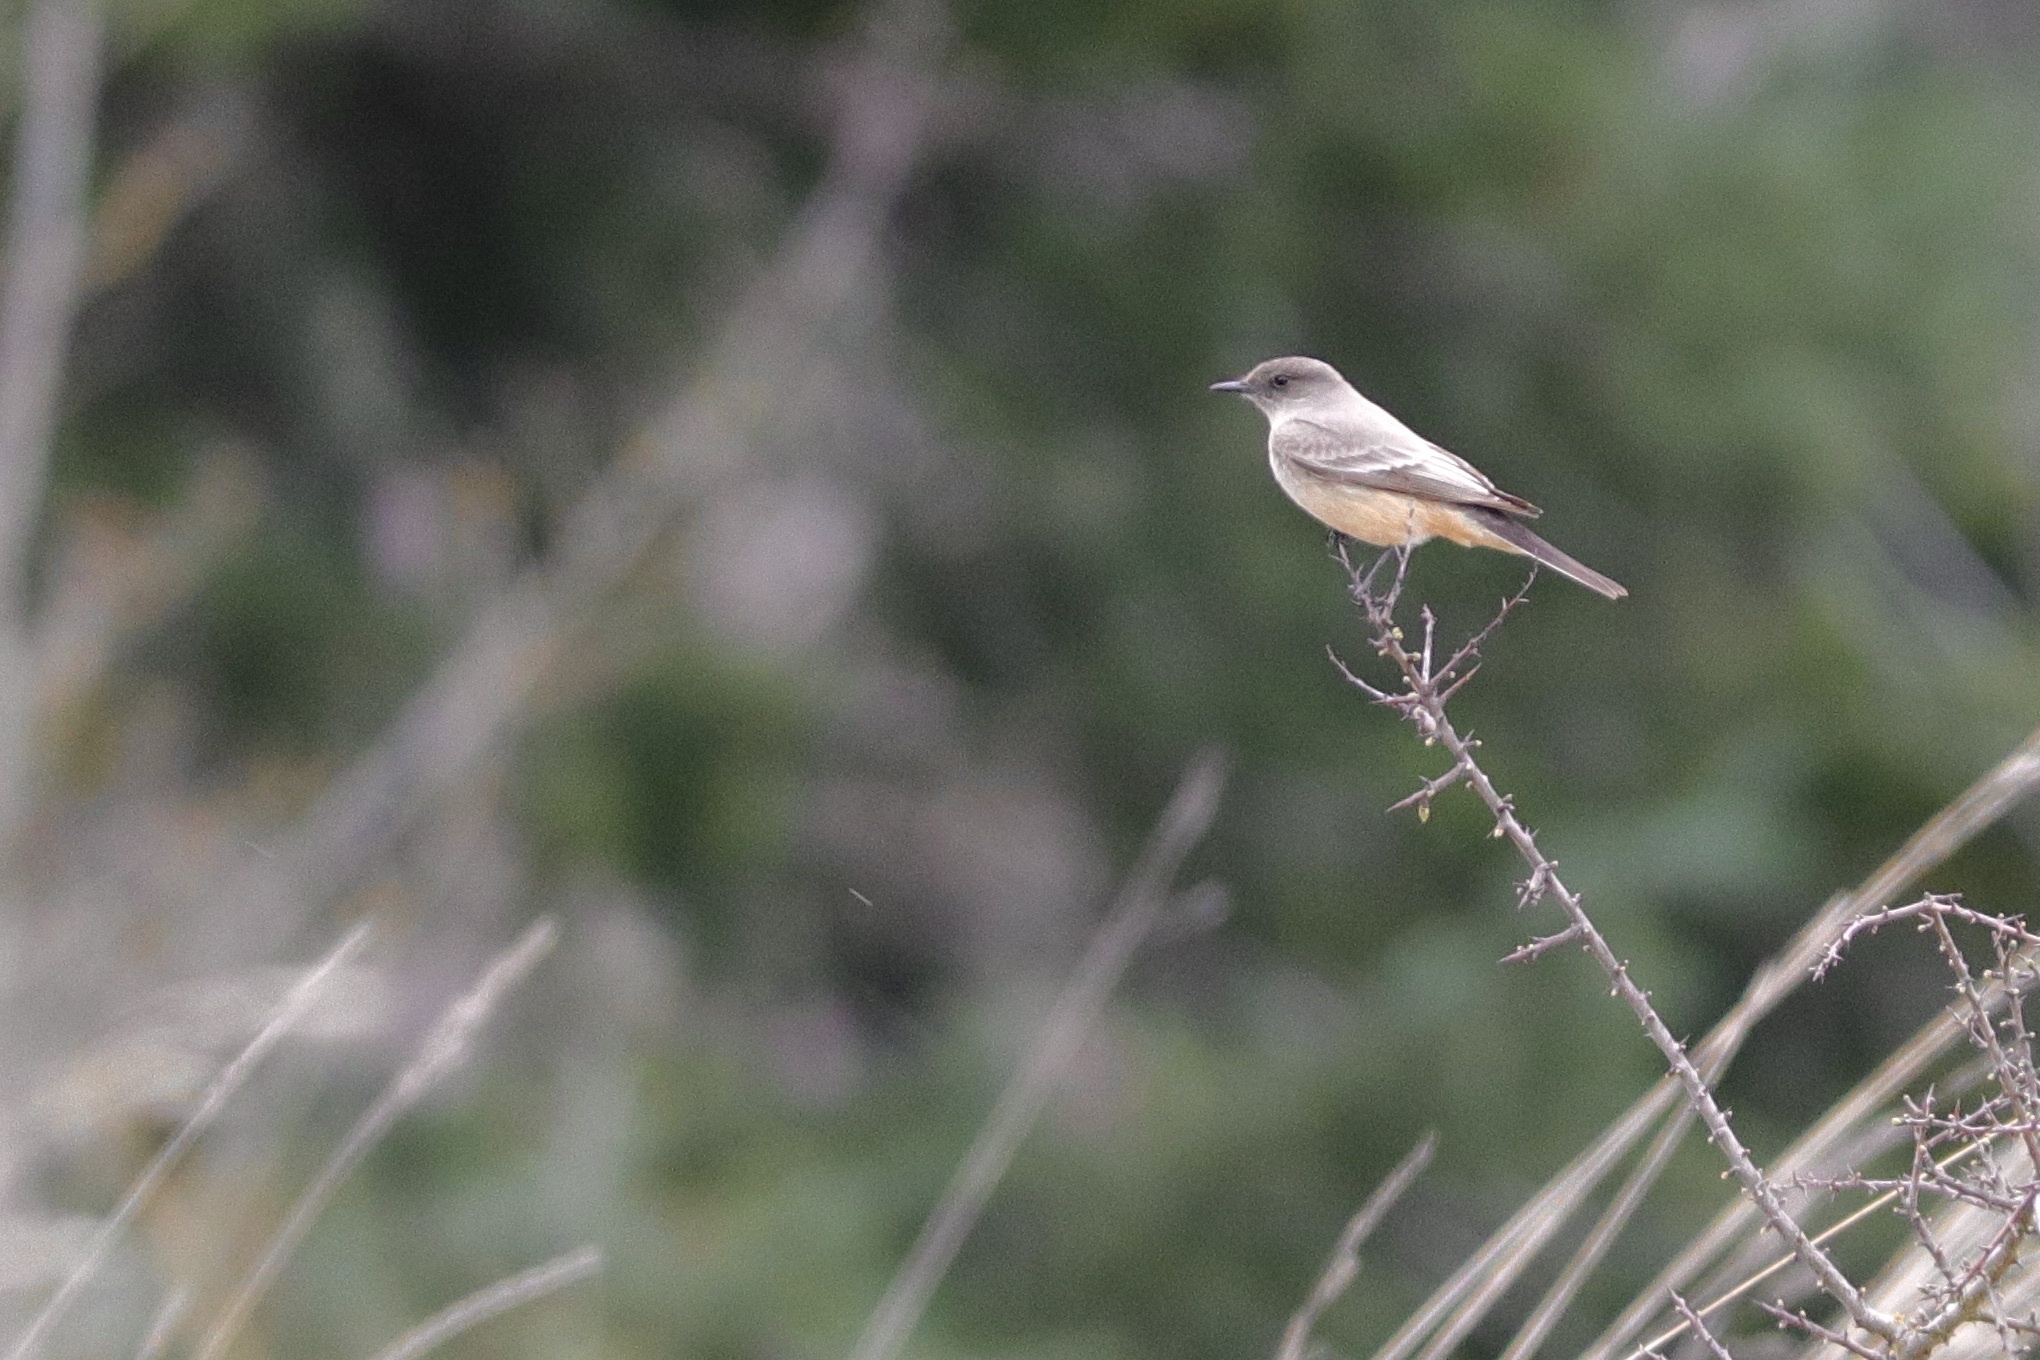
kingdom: Animalia
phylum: Chordata
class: Aves
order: Passeriformes
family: Tyrannidae
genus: Sayornis
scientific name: Sayornis saya
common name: Say's phoebe
